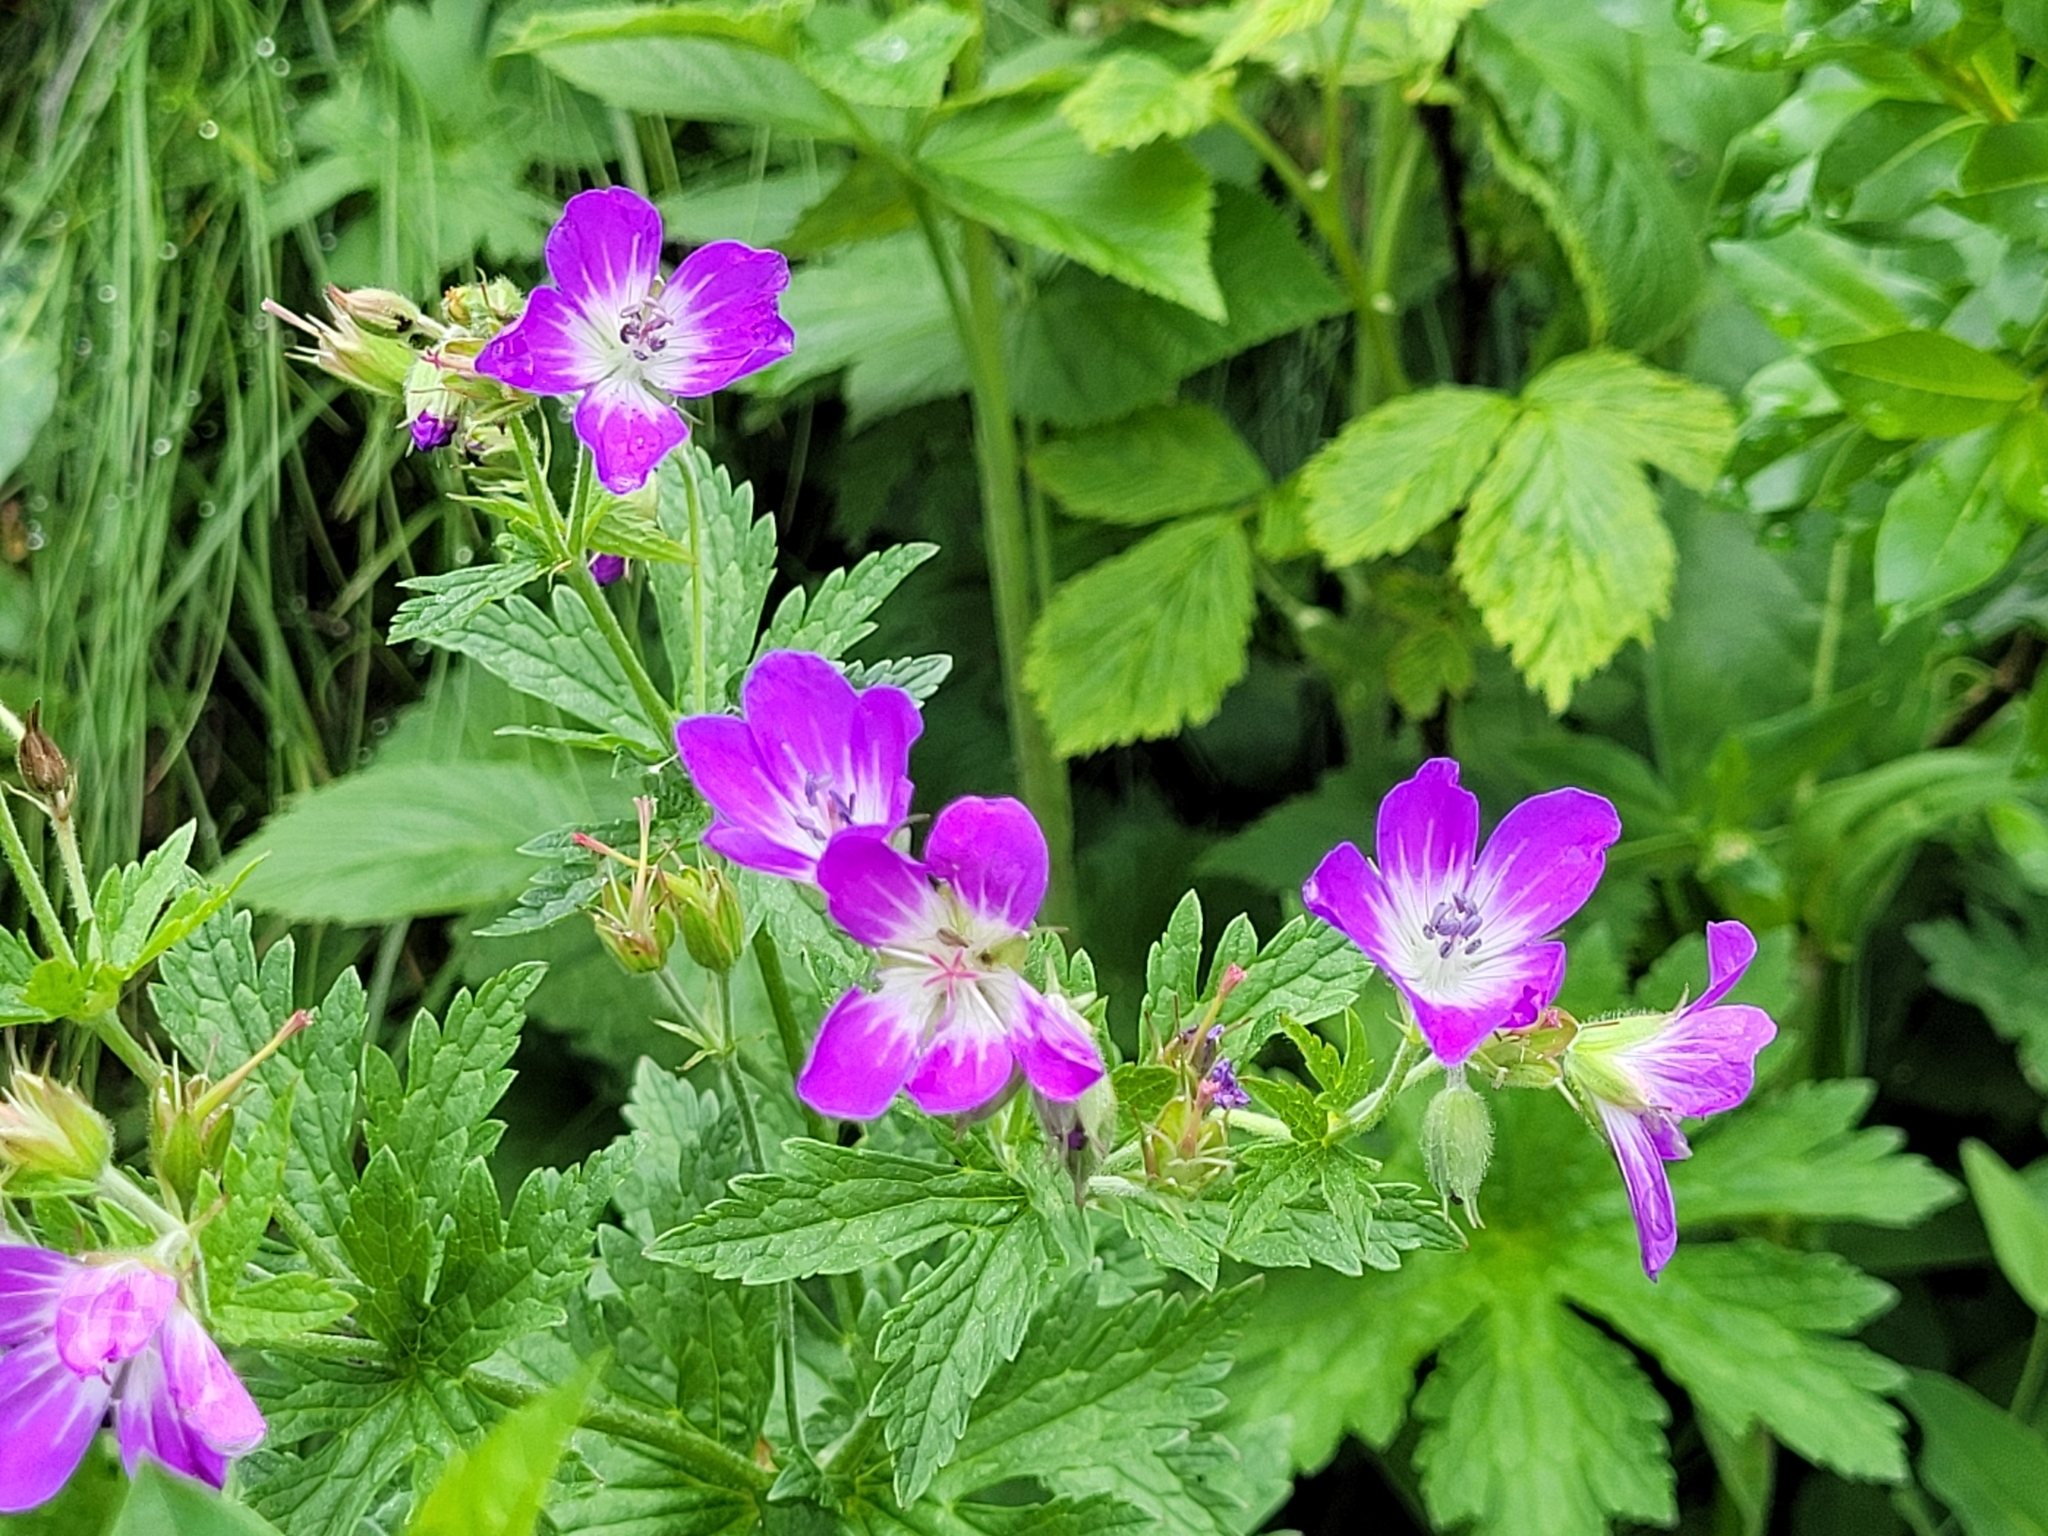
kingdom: Plantae
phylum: Tracheophyta
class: Magnoliopsida
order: Geraniales
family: Geraniaceae
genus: Geranium
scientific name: Geranium sylvaticum
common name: Wood crane's-bill
